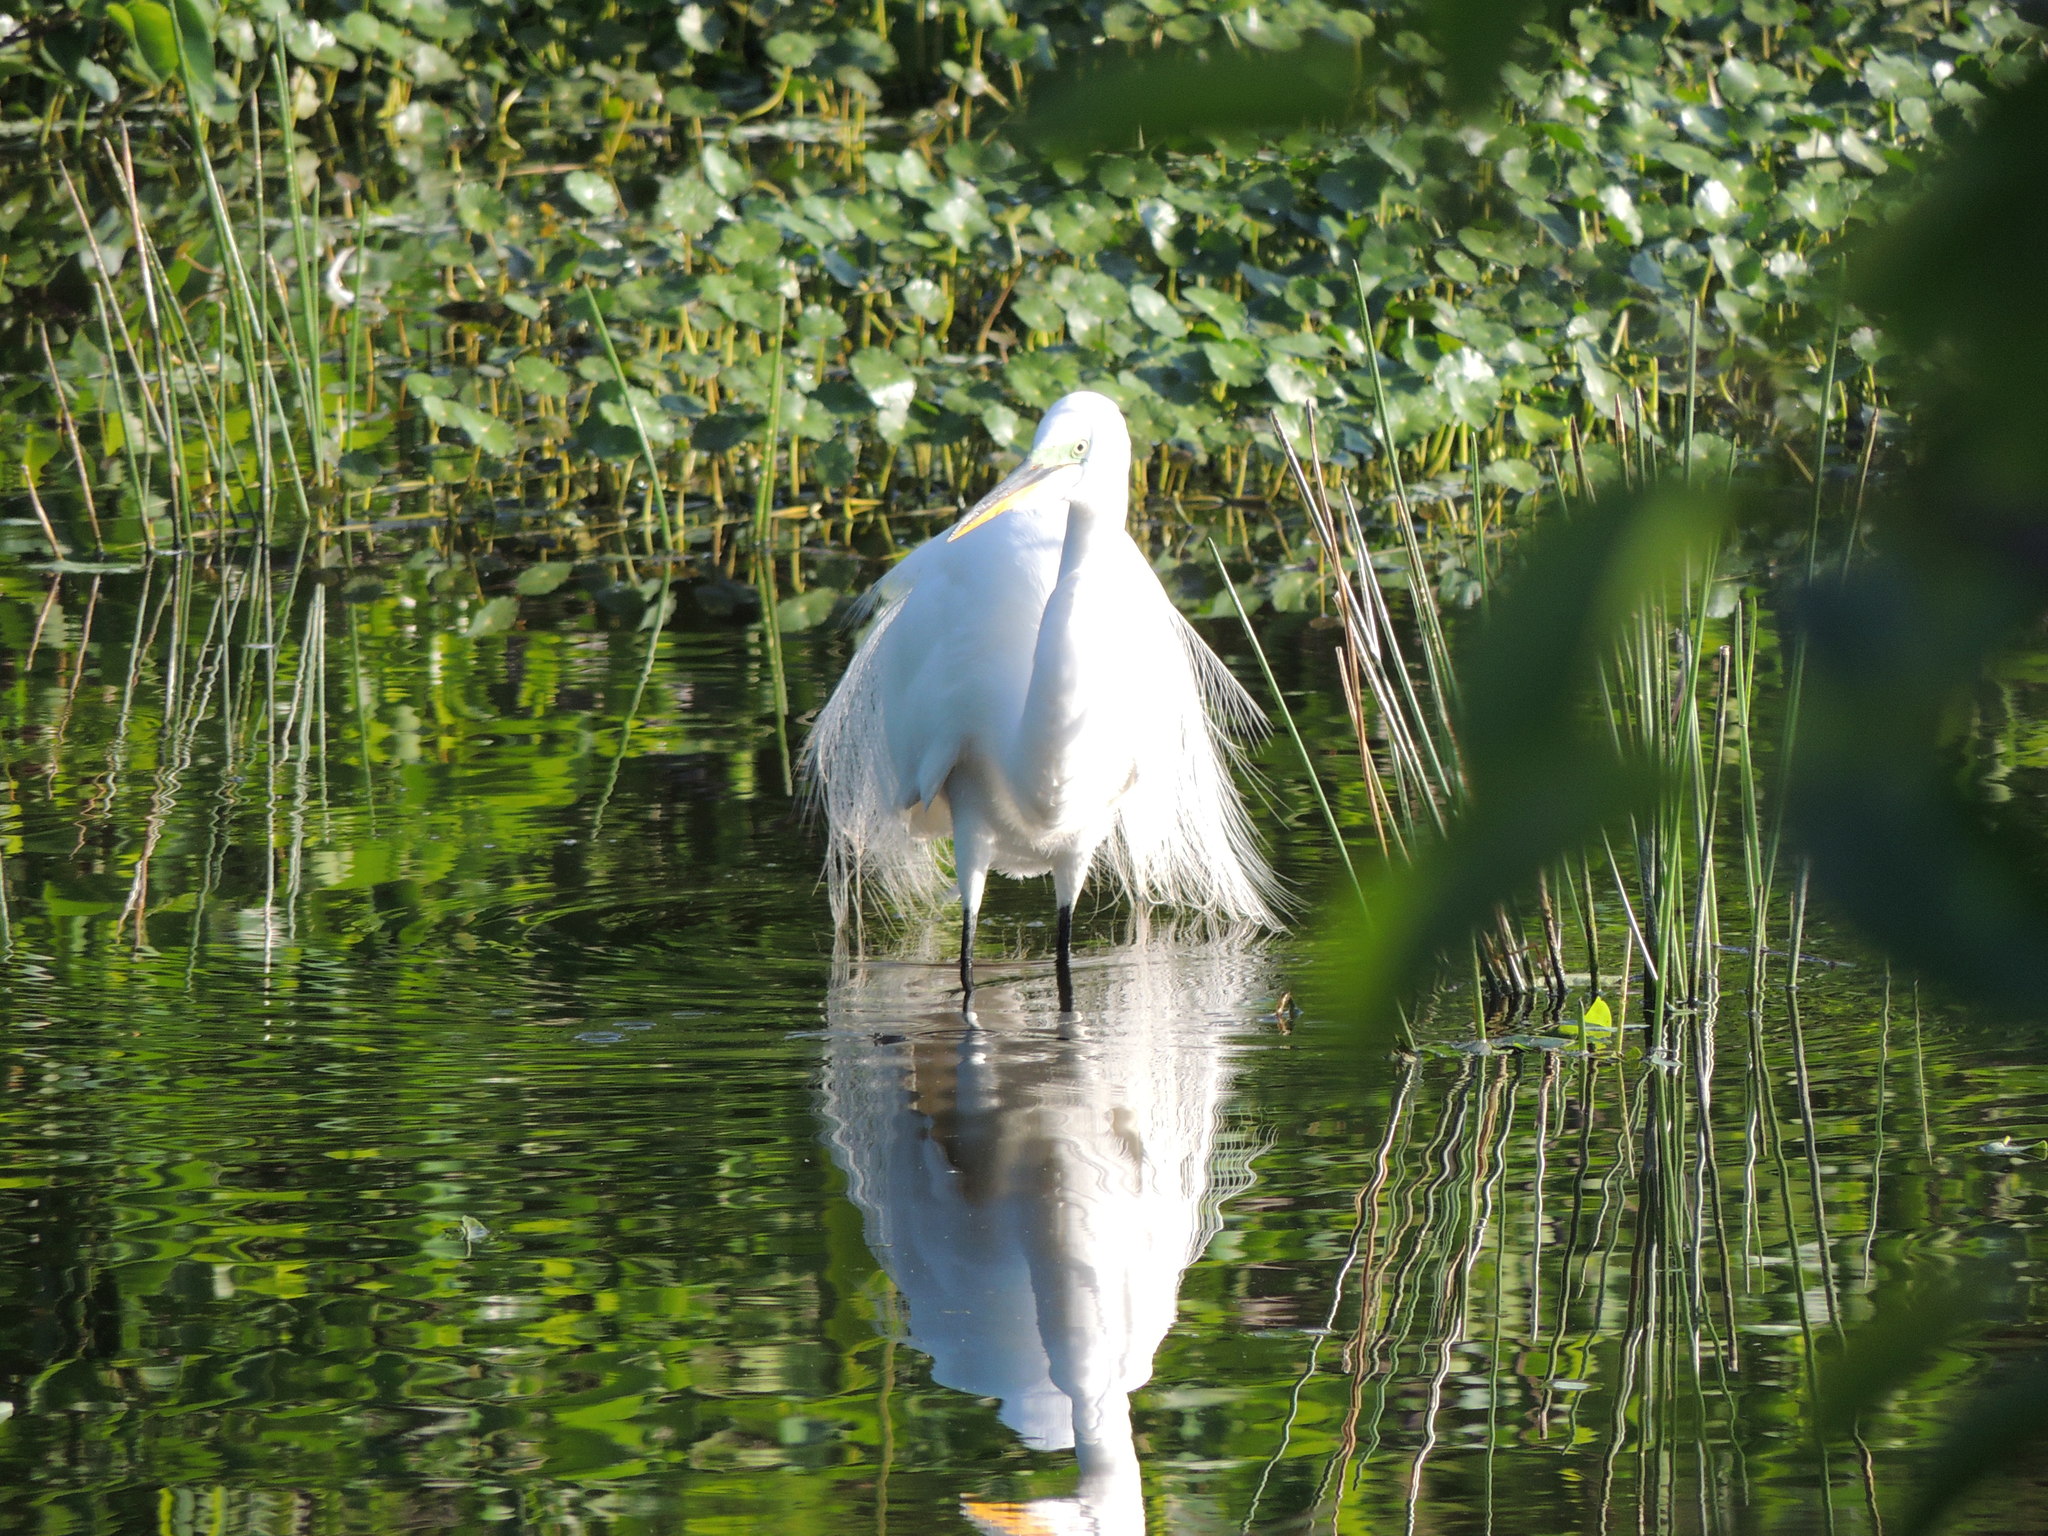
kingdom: Animalia
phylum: Chordata
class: Aves
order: Pelecaniformes
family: Ardeidae
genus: Ardea
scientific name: Ardea alba
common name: Great egret
